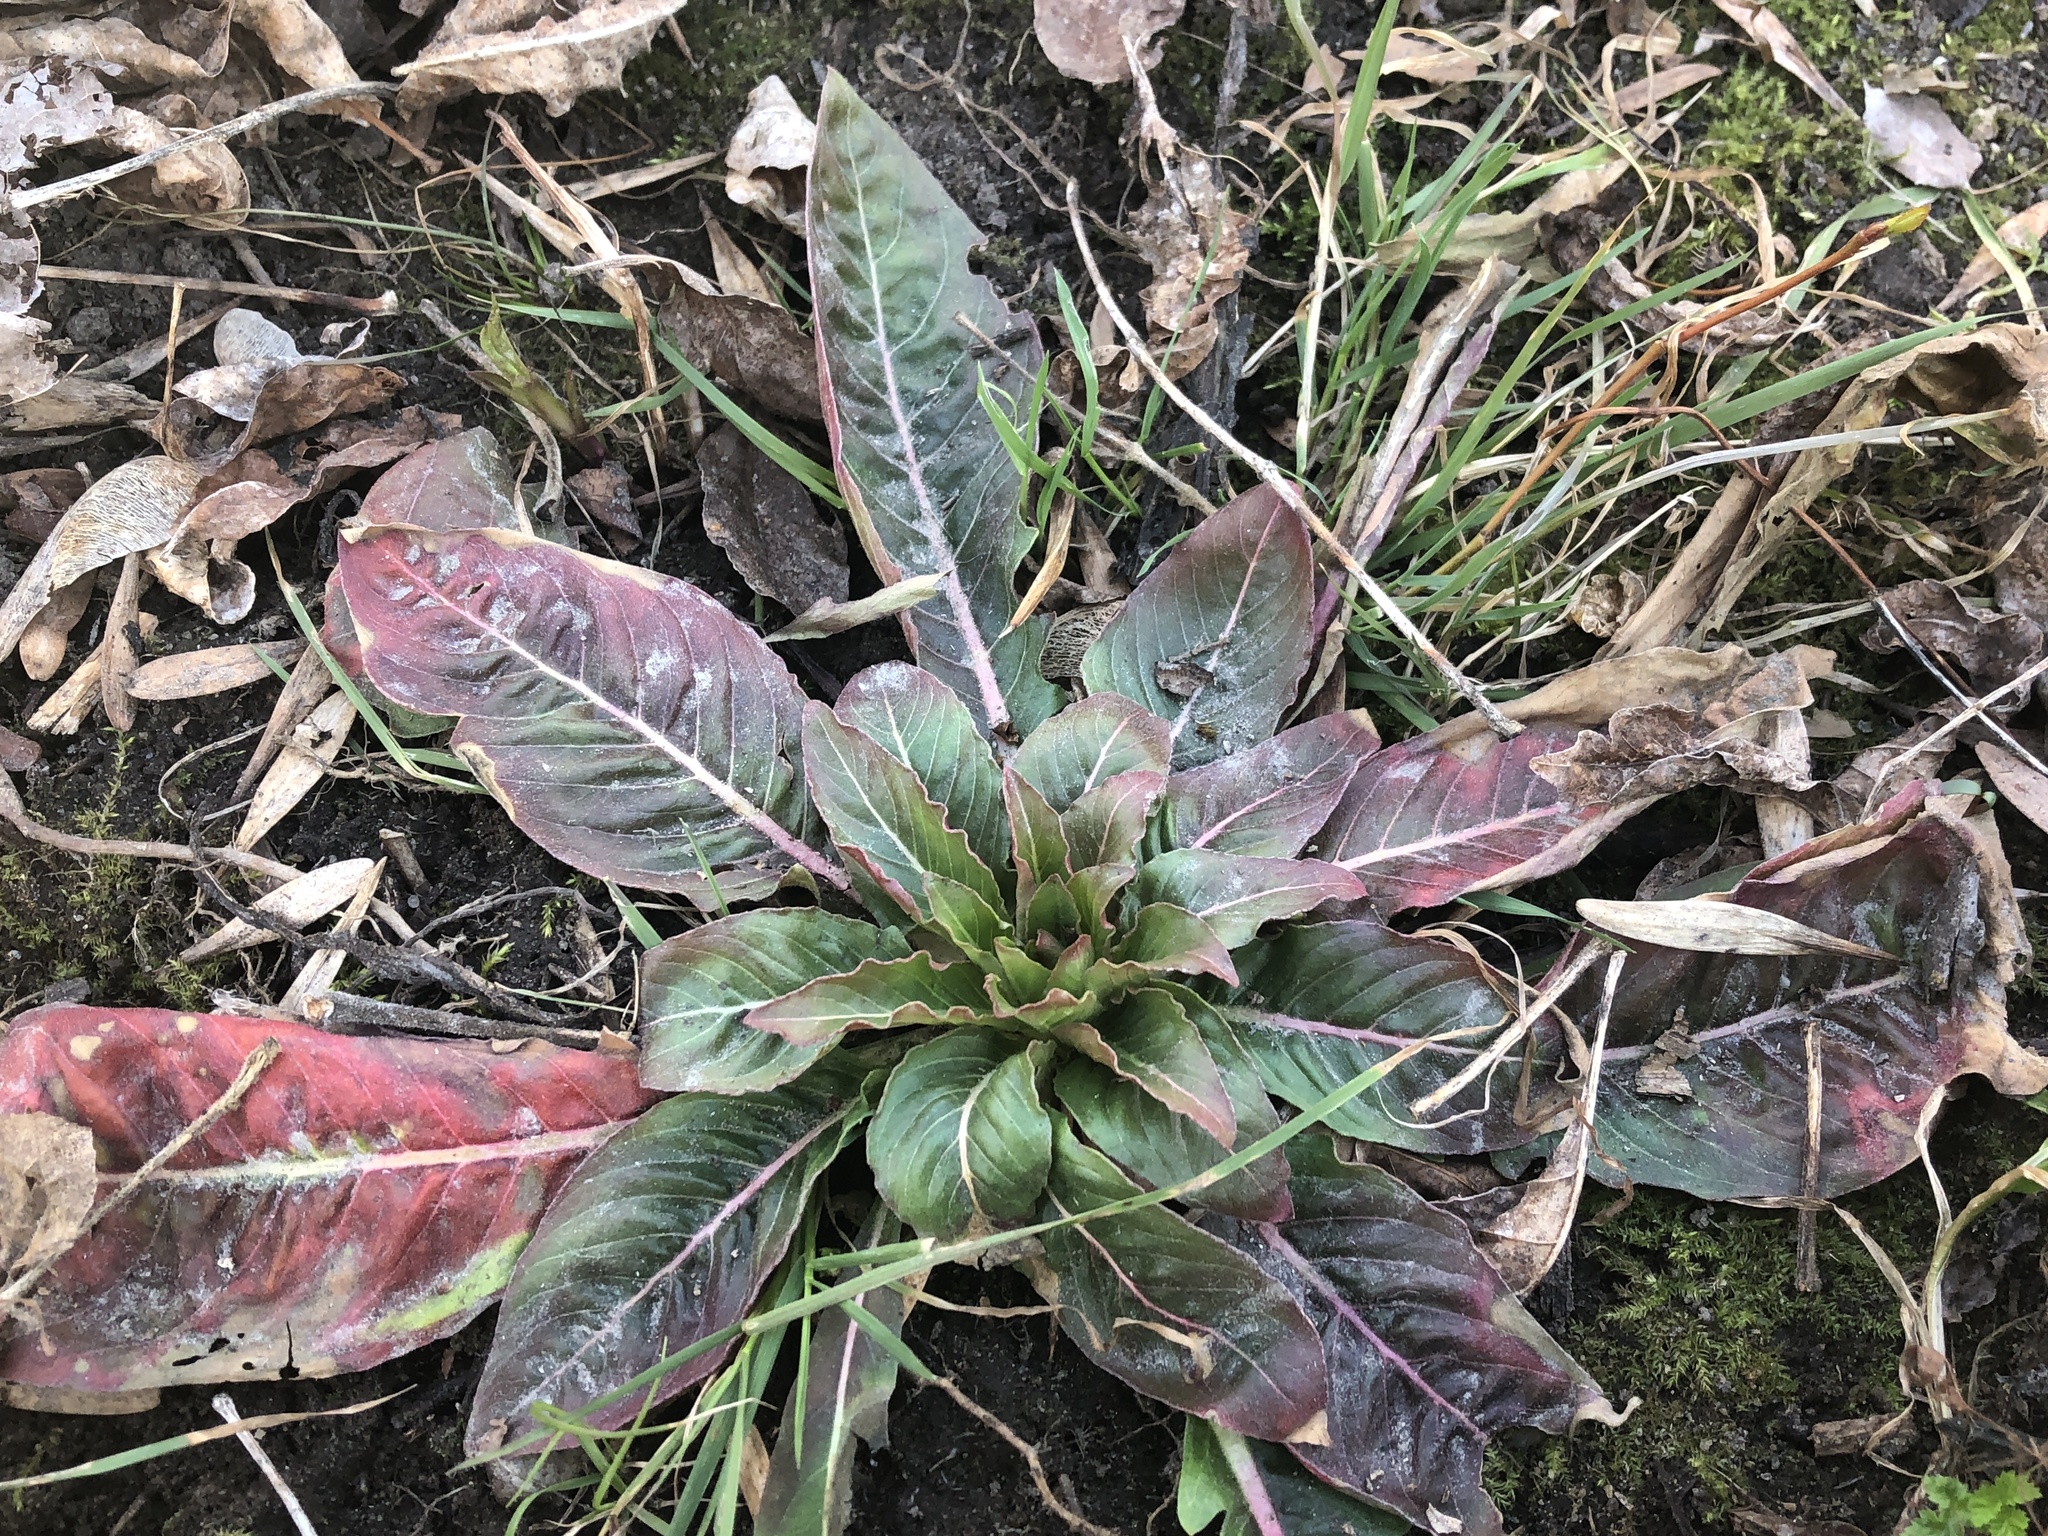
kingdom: Plantae
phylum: Tracheophyta
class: Magnoliopsida
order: Myrtales
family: Onagraceae
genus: Oenothera
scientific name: Oenothera
